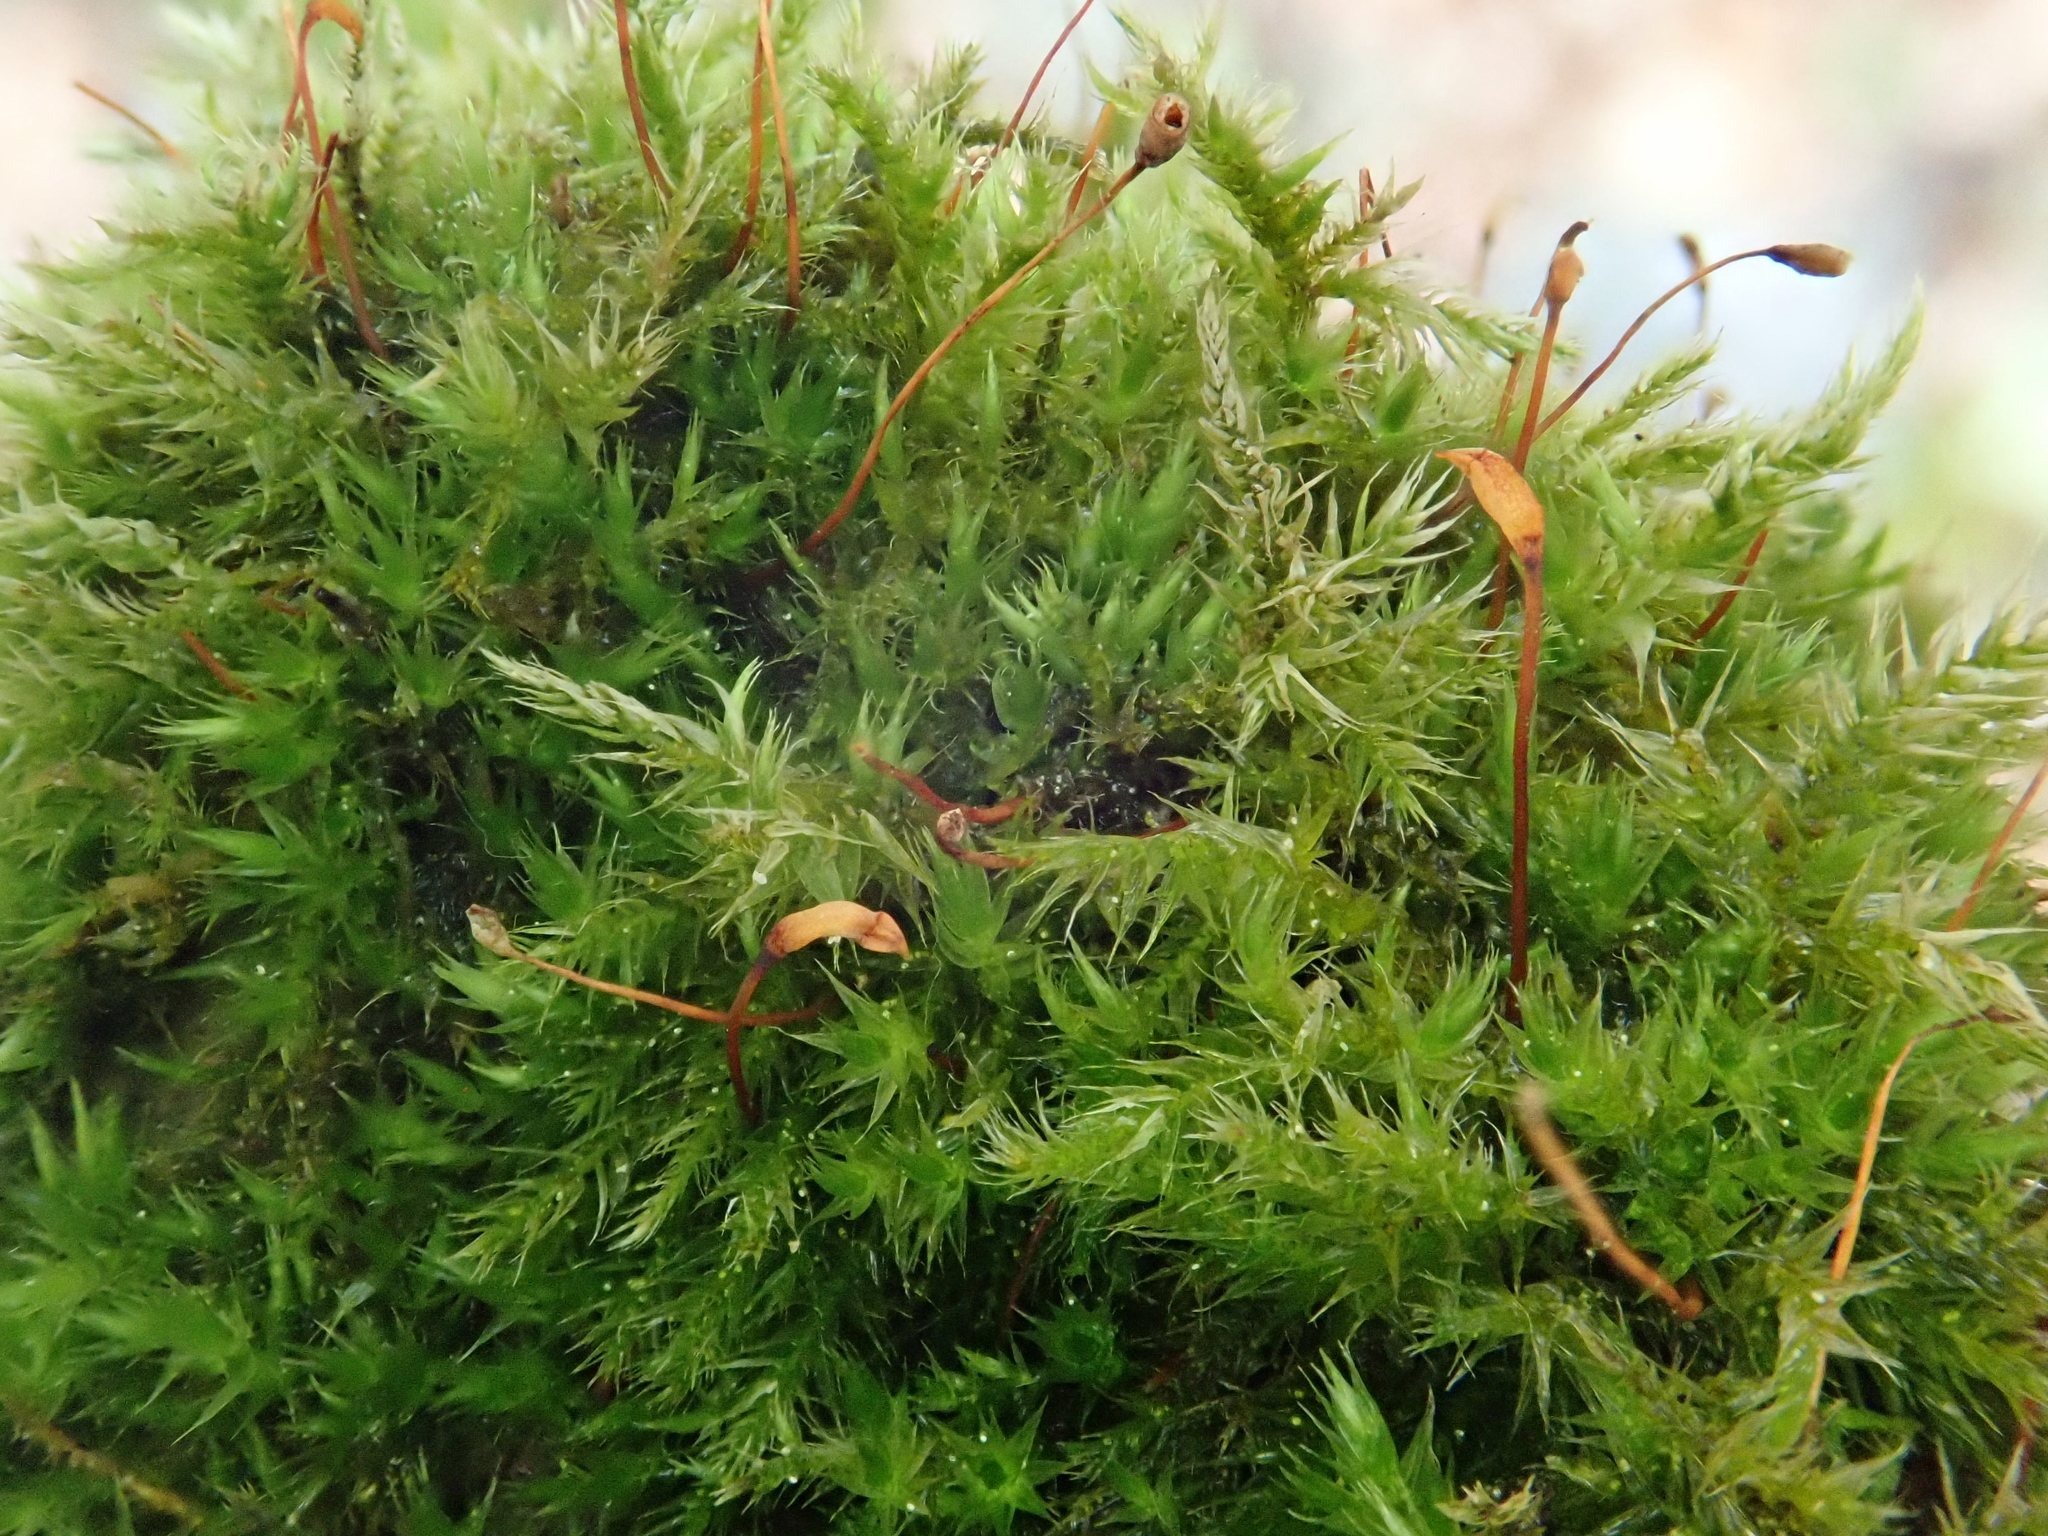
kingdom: Plantae
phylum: Bryophyta
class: Bryopsida
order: Hypnales
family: Brachytheciaceae
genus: Sciuro-hypnum
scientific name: Sciuro-hypnum populeum
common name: Matted feather-moss
